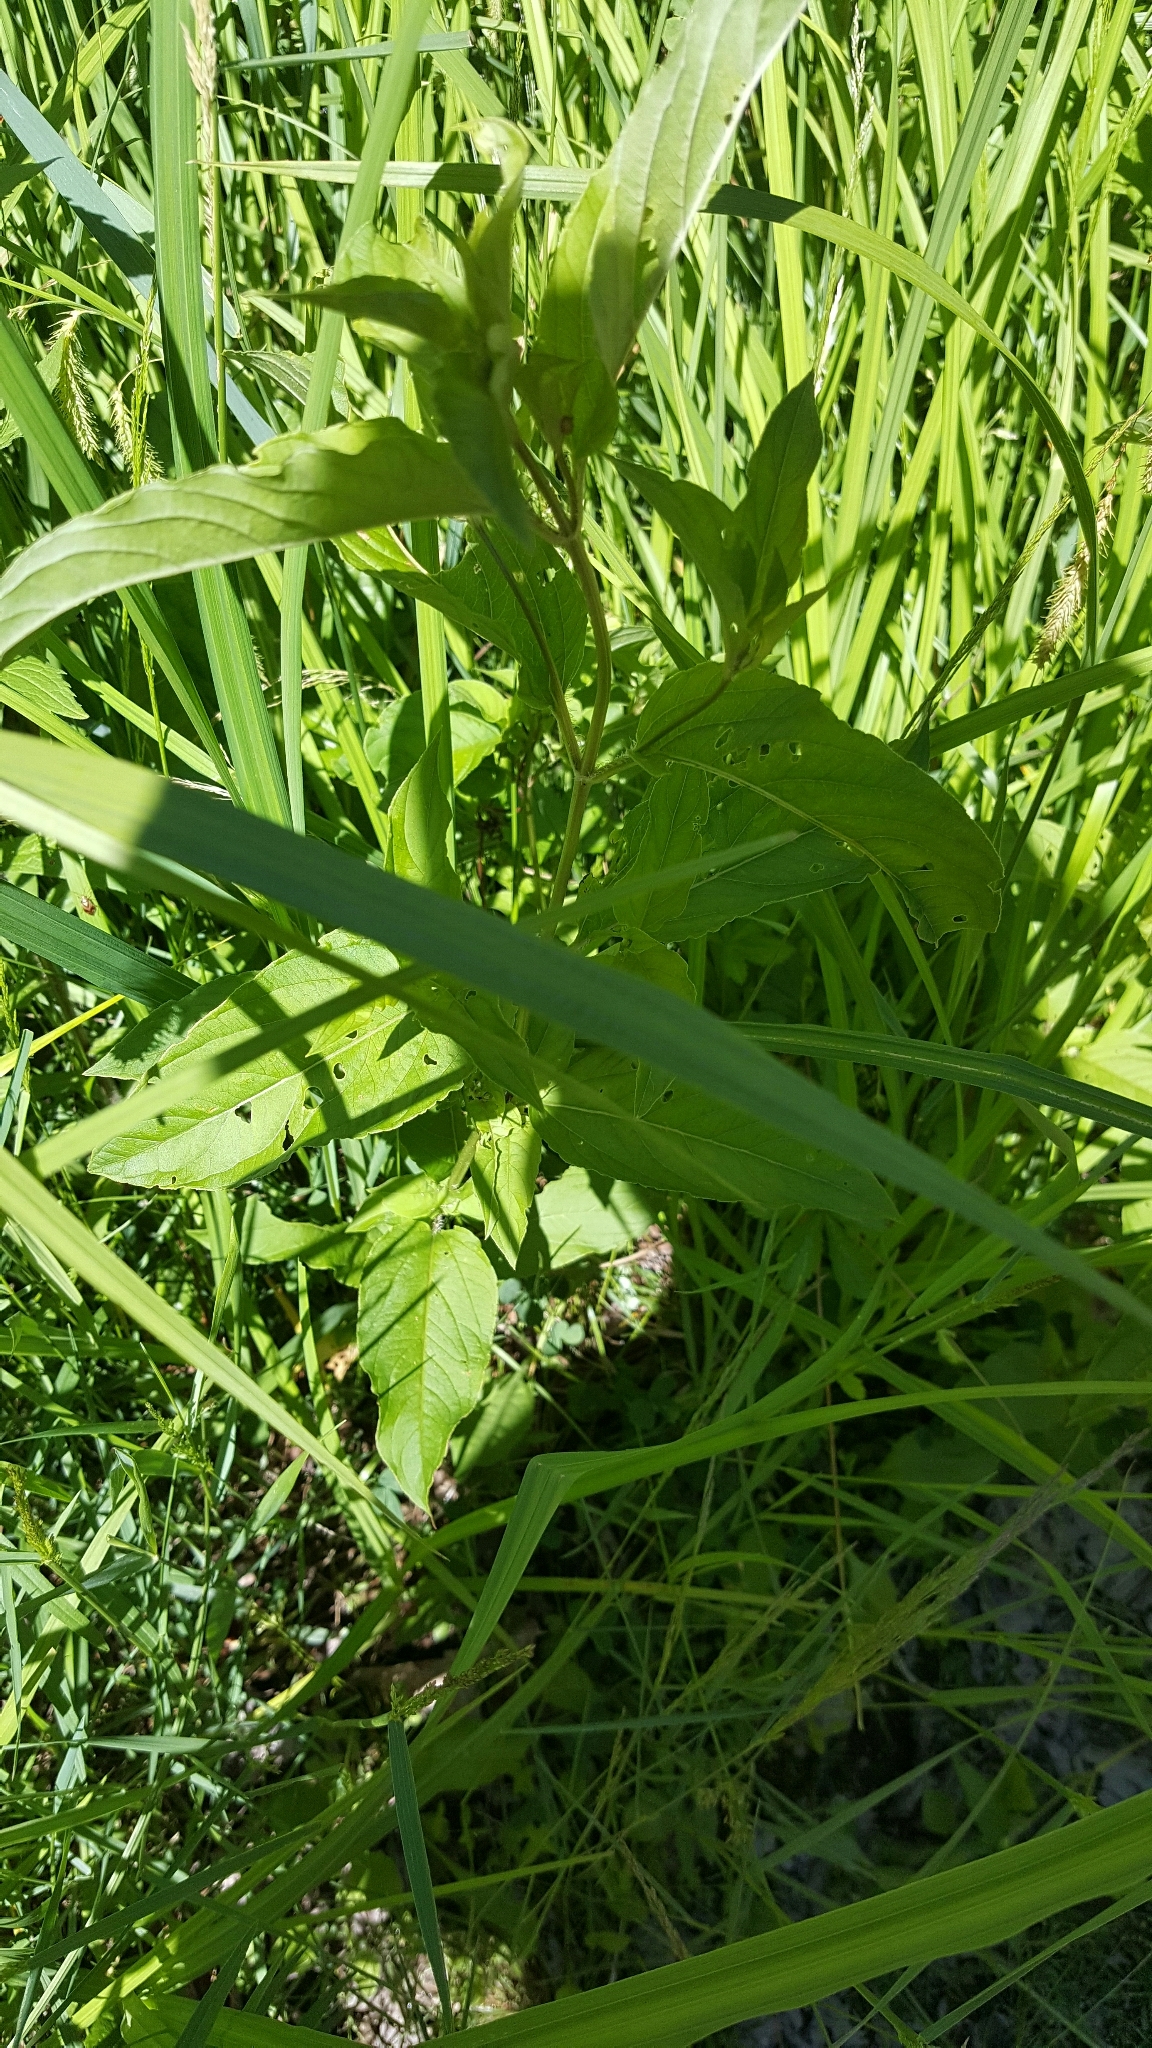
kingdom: Plantae
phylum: Tracheophyta
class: Magnoliopsida
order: Ericales
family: Primulaceae
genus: Lysimachia
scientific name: Lysimachia ciliata
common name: Fringed loosestrife
